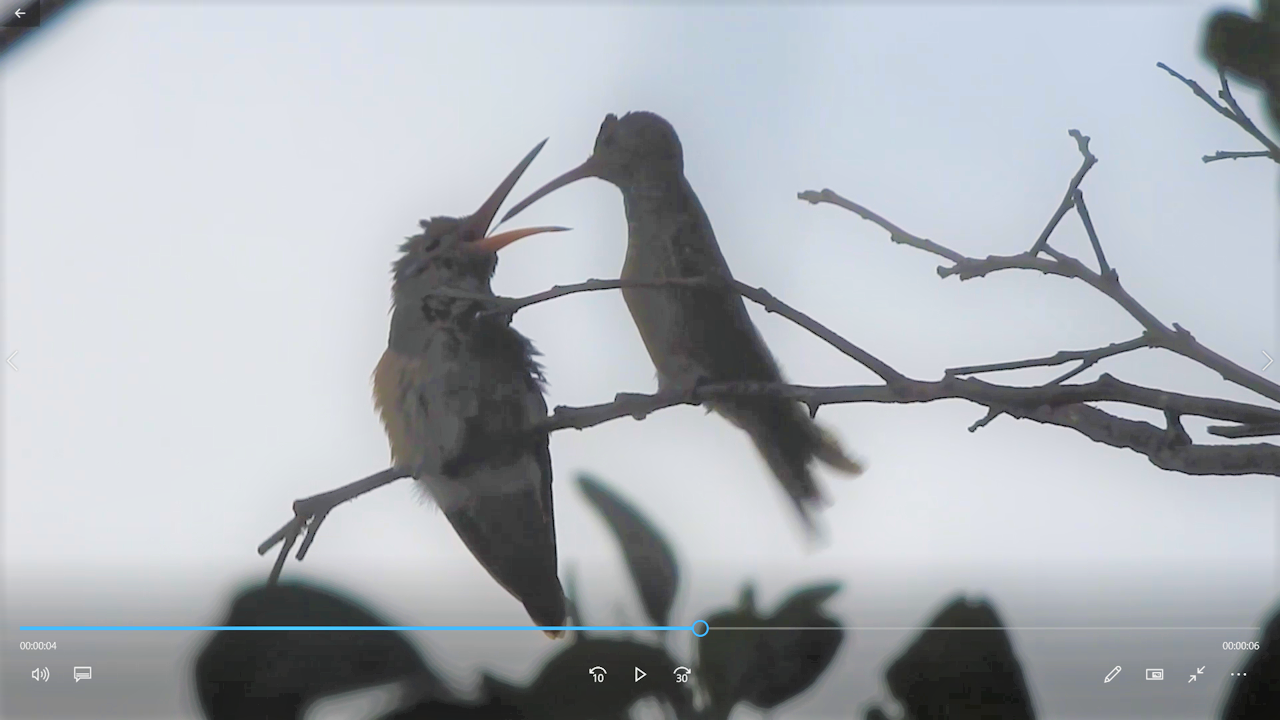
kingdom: Animalia
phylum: Chordata
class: Aves
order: Apodiformes
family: Trochilidae
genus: Amazilia
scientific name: Amazilia yucatanensis
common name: Buff-bellied hummingbird
